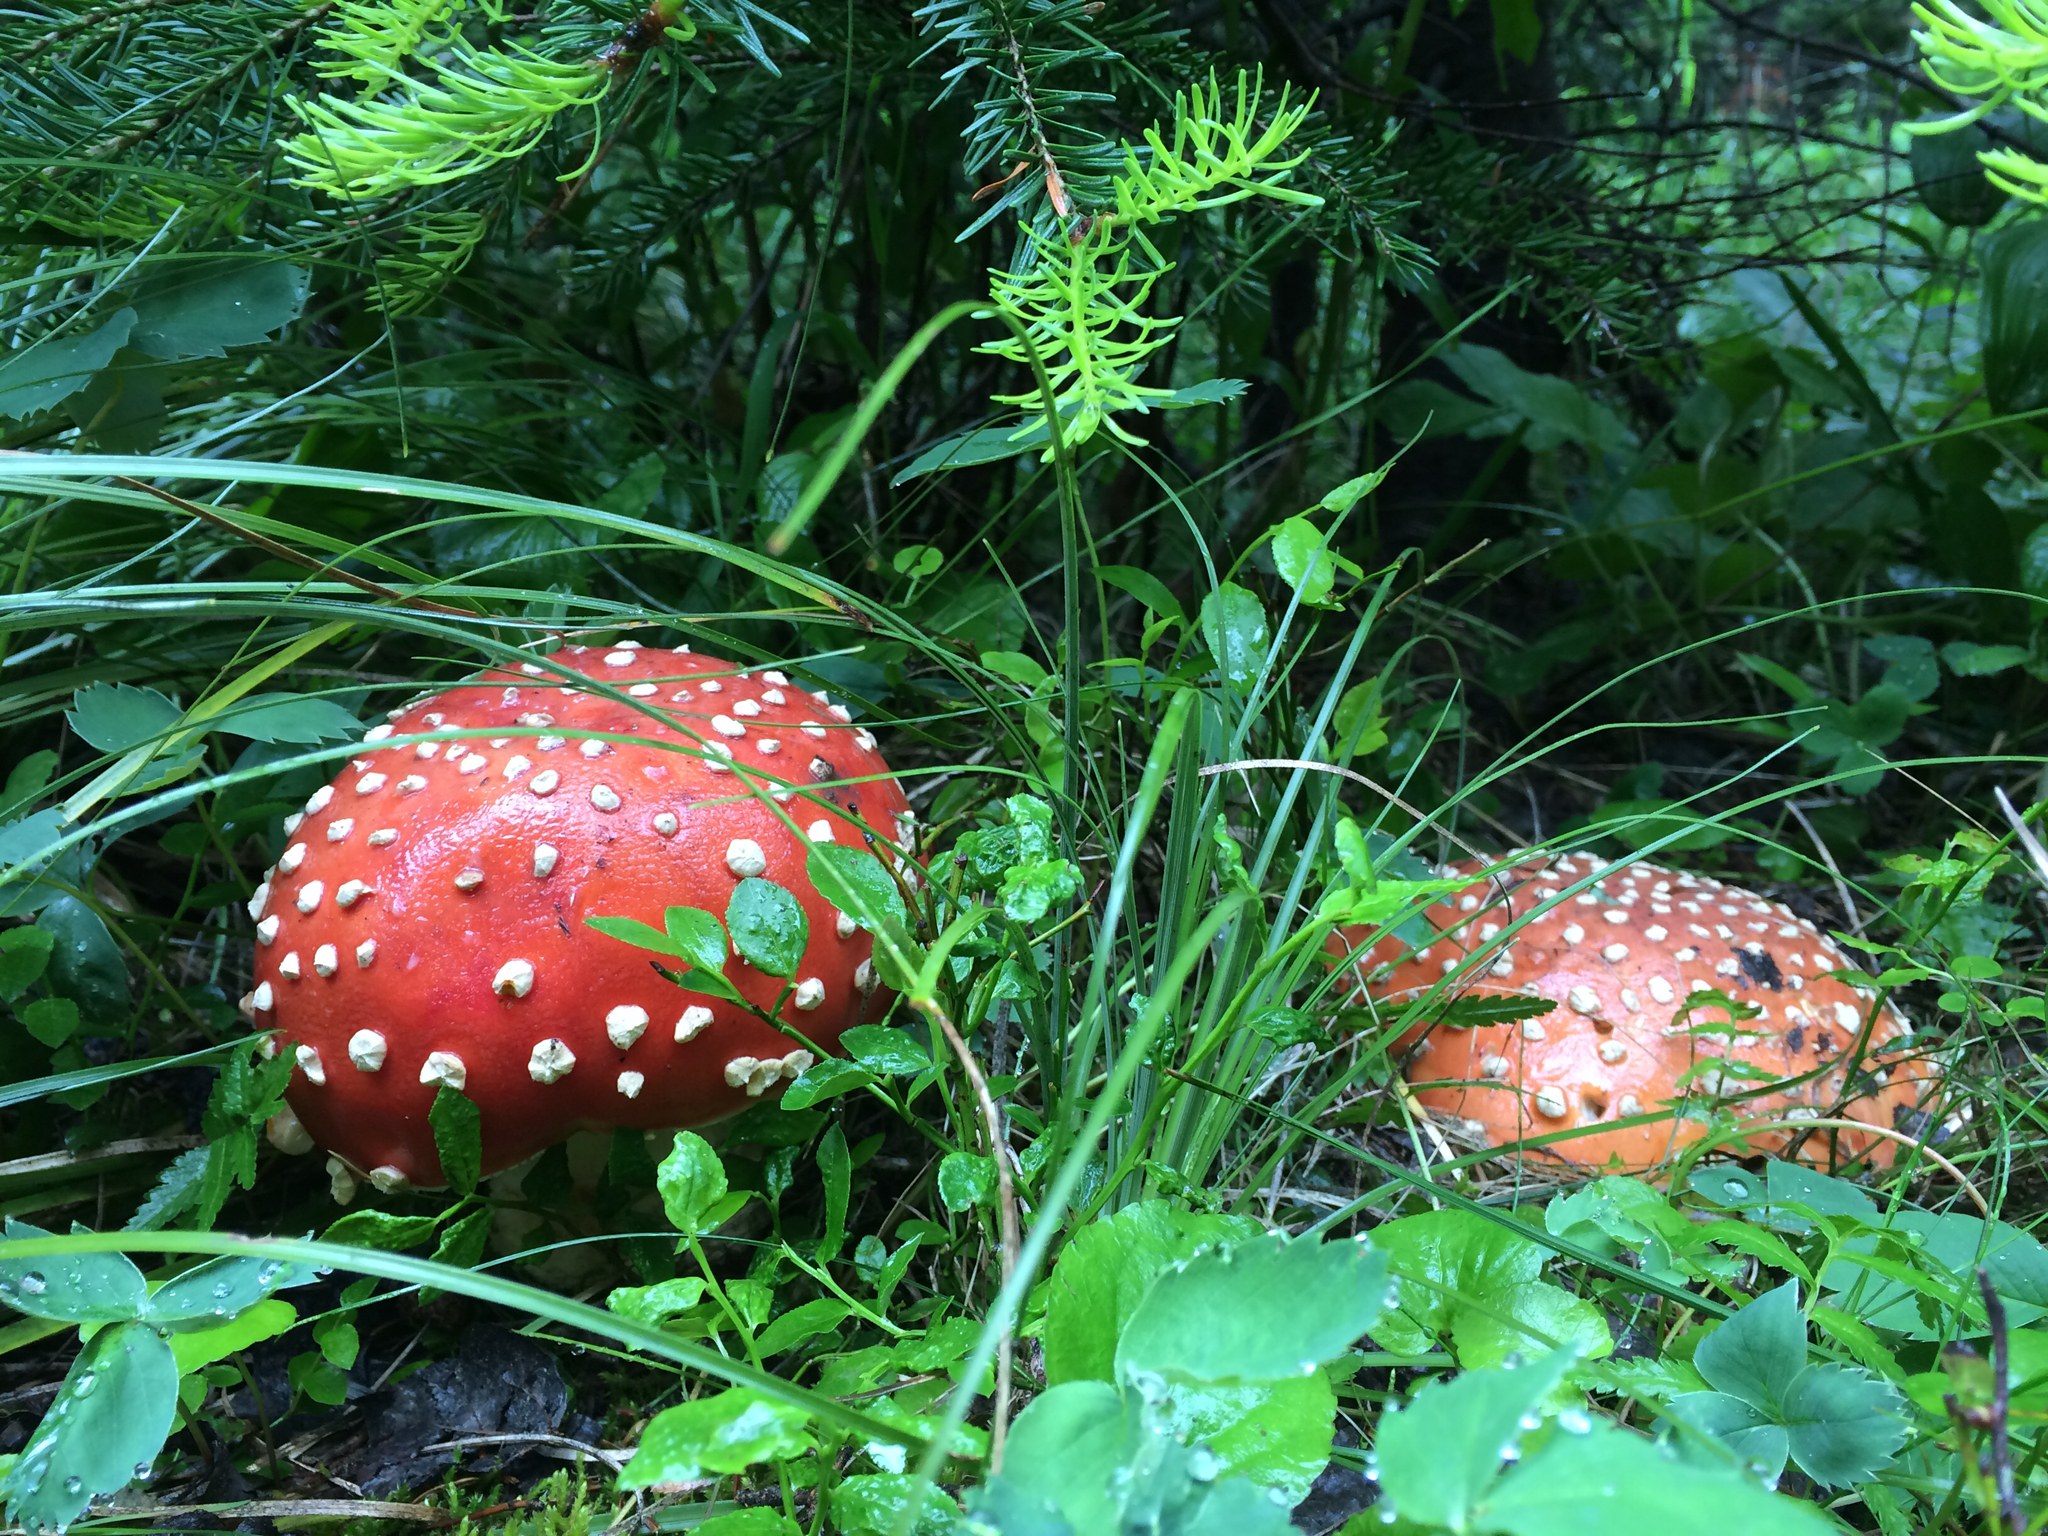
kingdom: Fungi
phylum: Basidiomycota
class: Agaricomycetes
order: Agaricales
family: Amanitaceae
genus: Amanita
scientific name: Amanita muscaria
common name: Fly agaric
